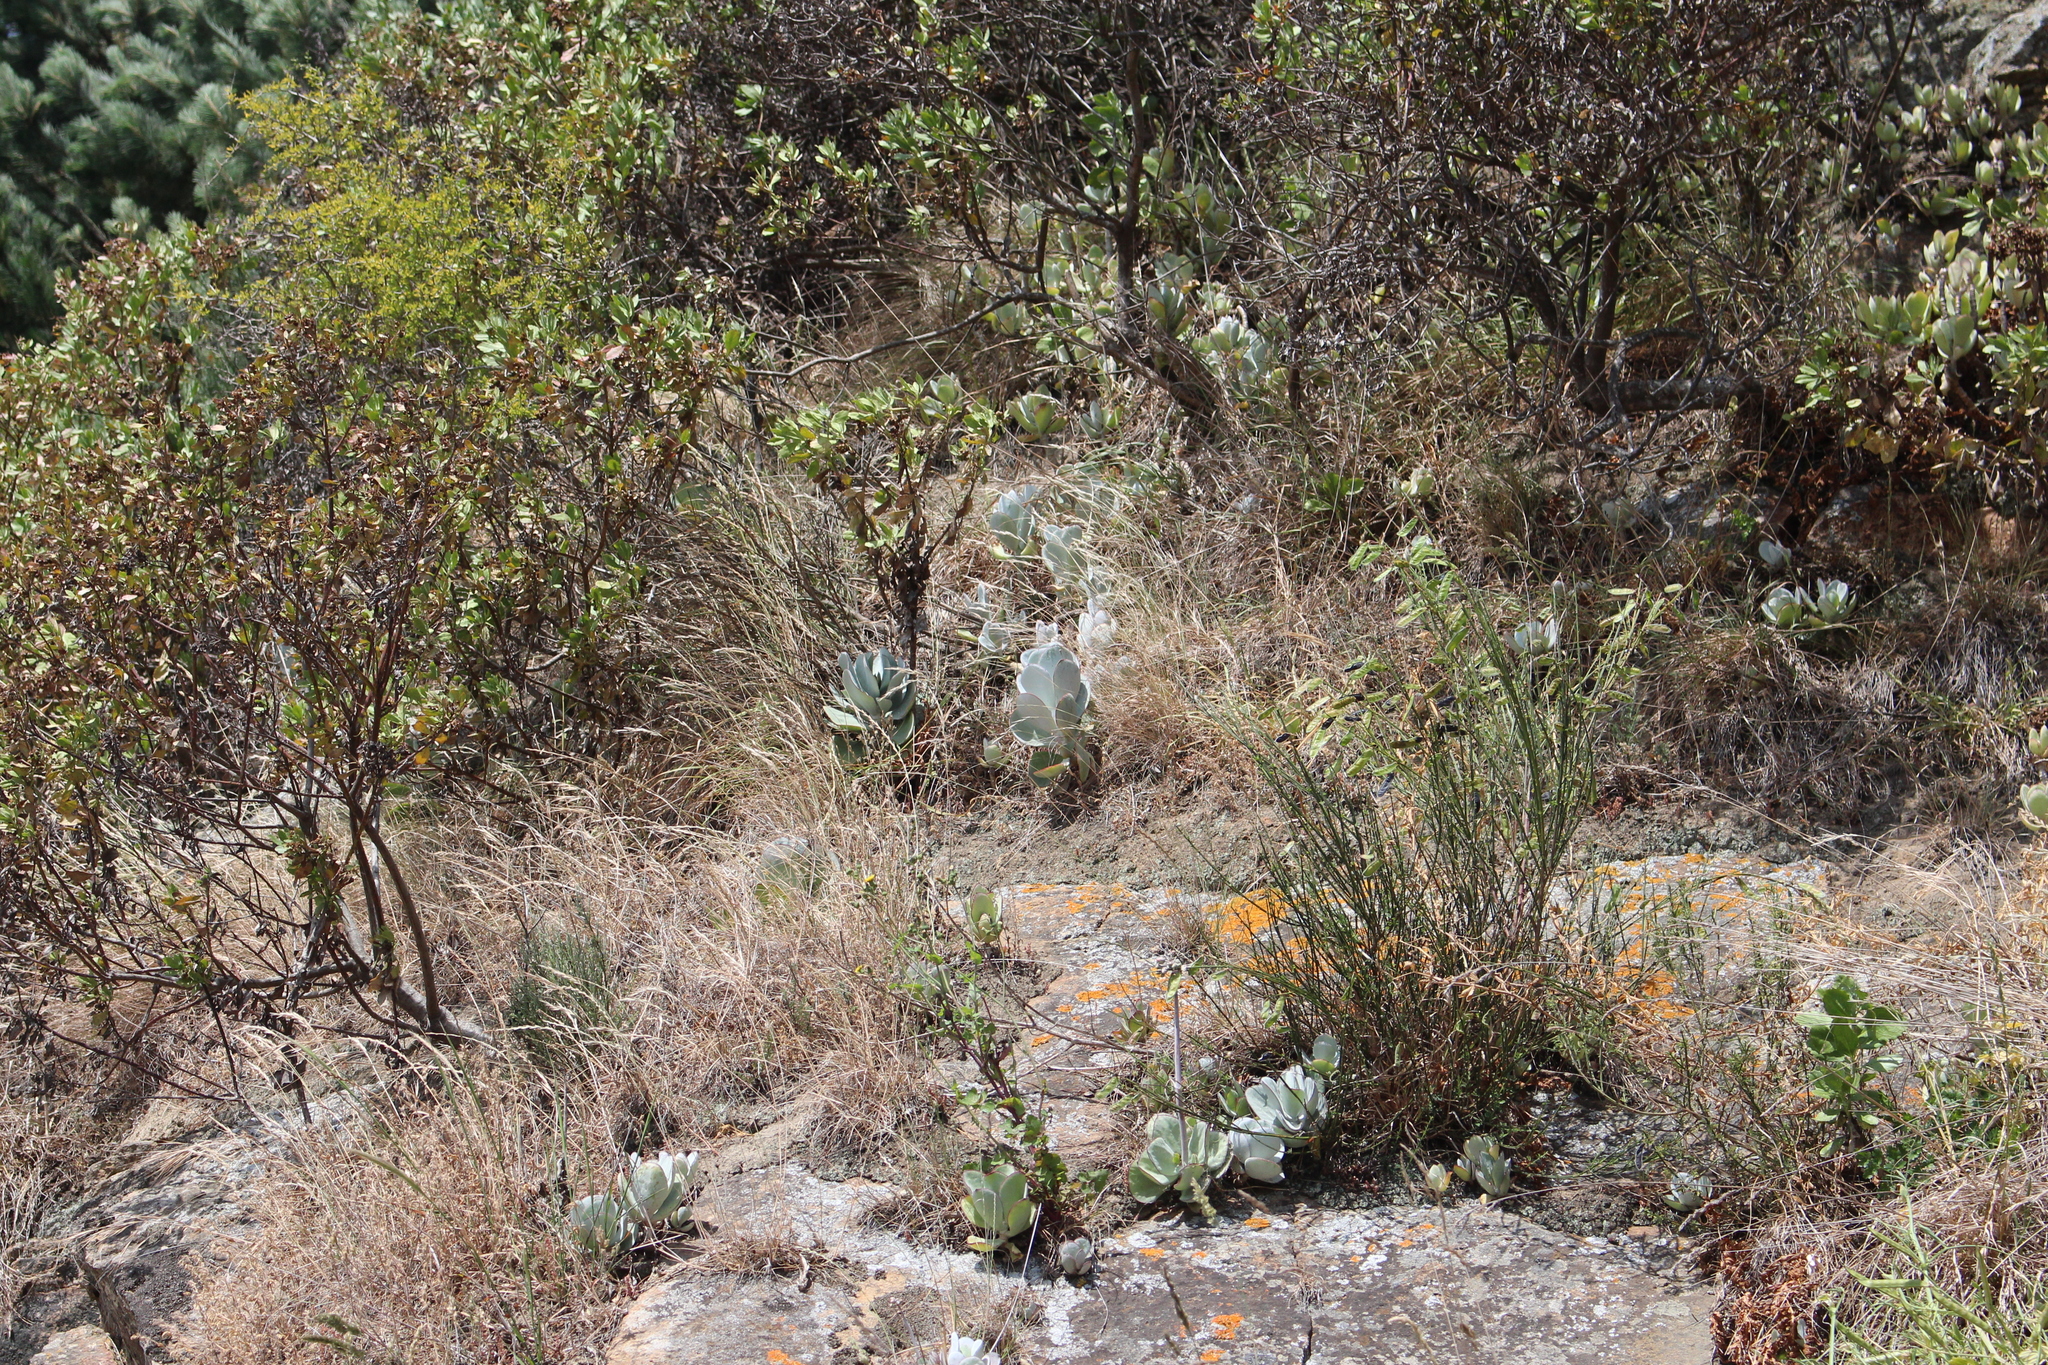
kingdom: Plantae
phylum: Tracheophyta
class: Magnoliopsida
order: Saxifragales
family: Crassulaceae
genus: Cotyledon
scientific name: Cotyledon orbiculata
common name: Pig's ear
